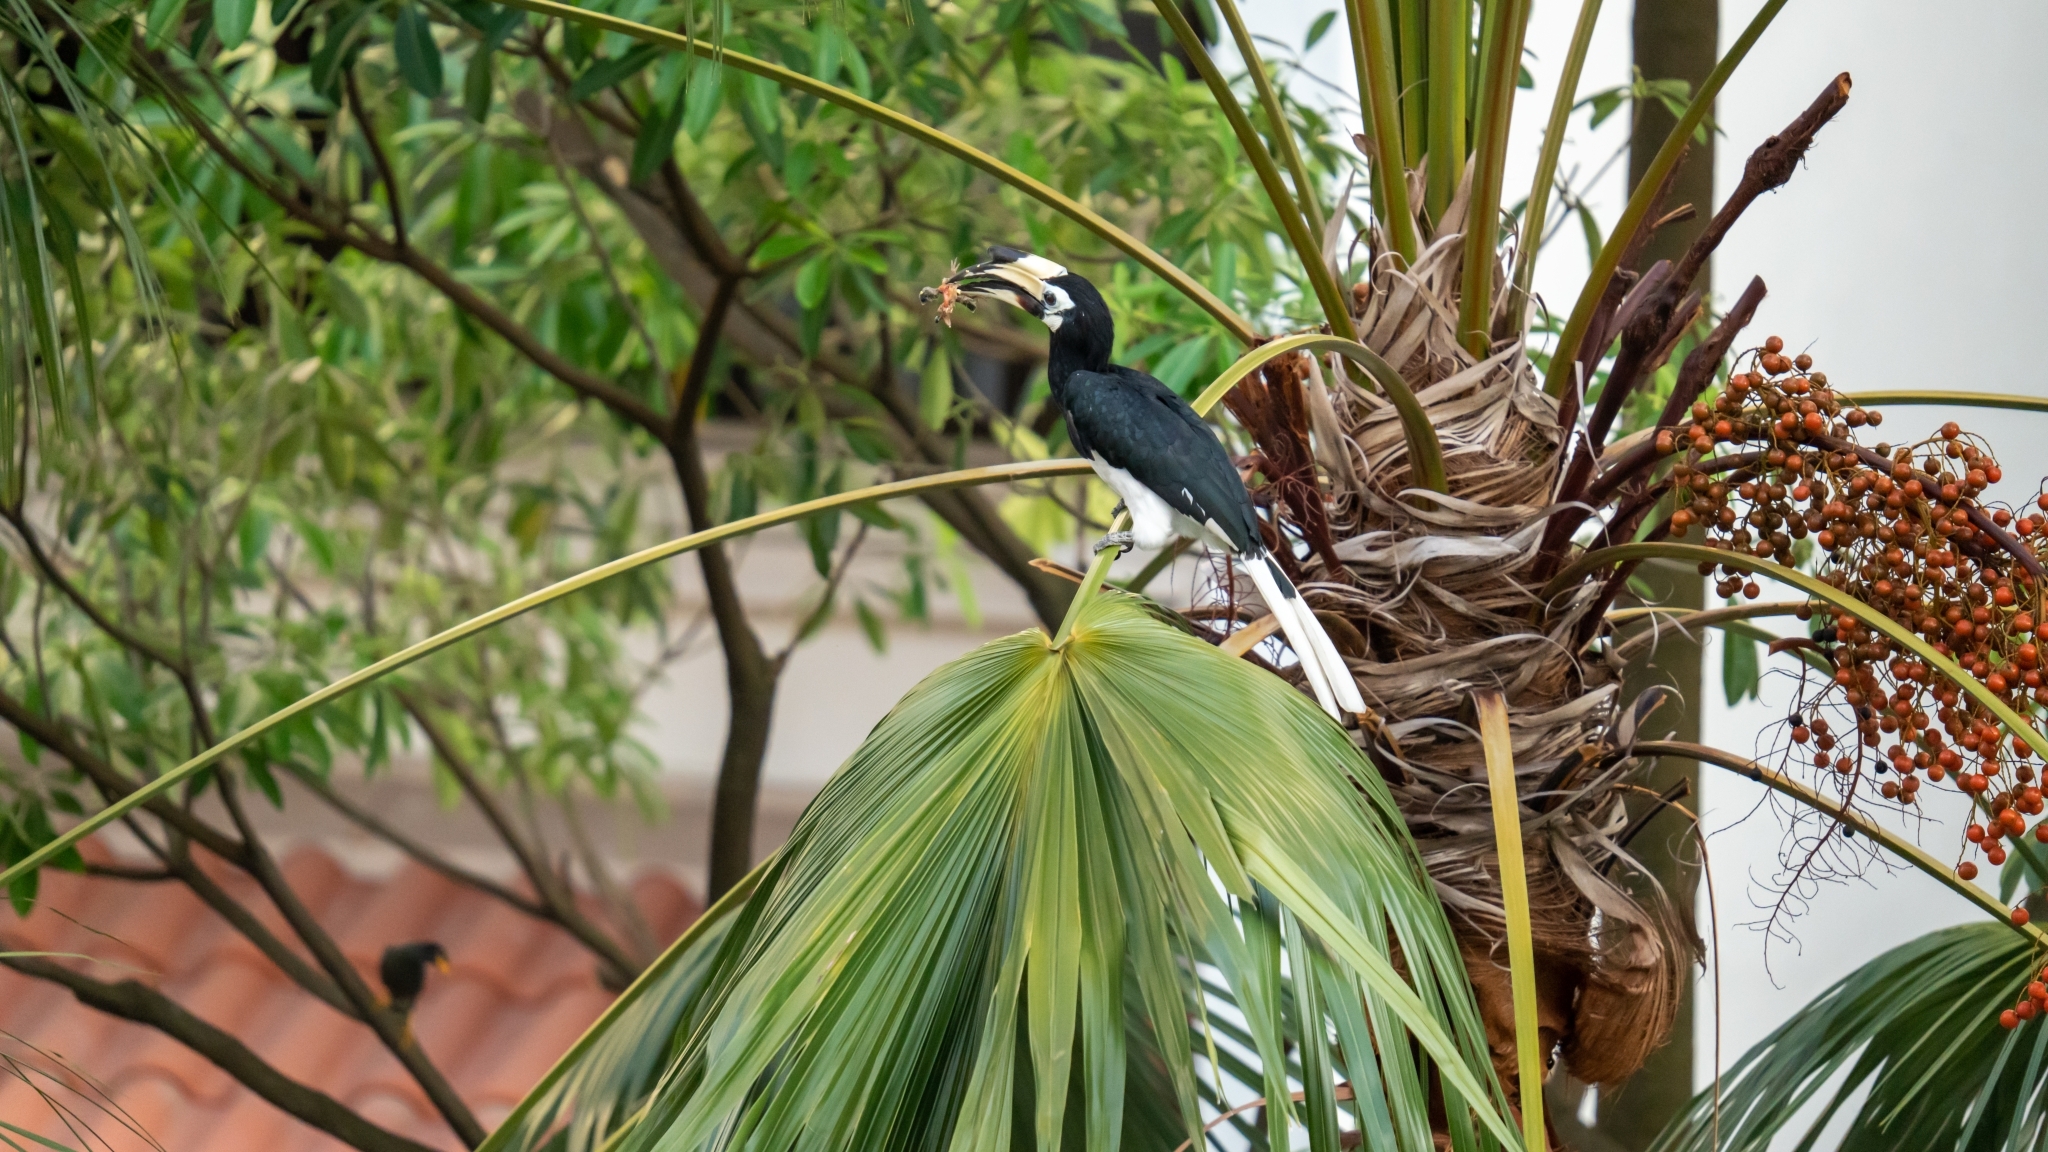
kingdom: Animalia
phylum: Chordata
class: Aves
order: Bucerotiformes
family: Bucerotidae
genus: Anthracoceros
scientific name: Anthracoceros albirostris
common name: Oriental pied-hornbill
